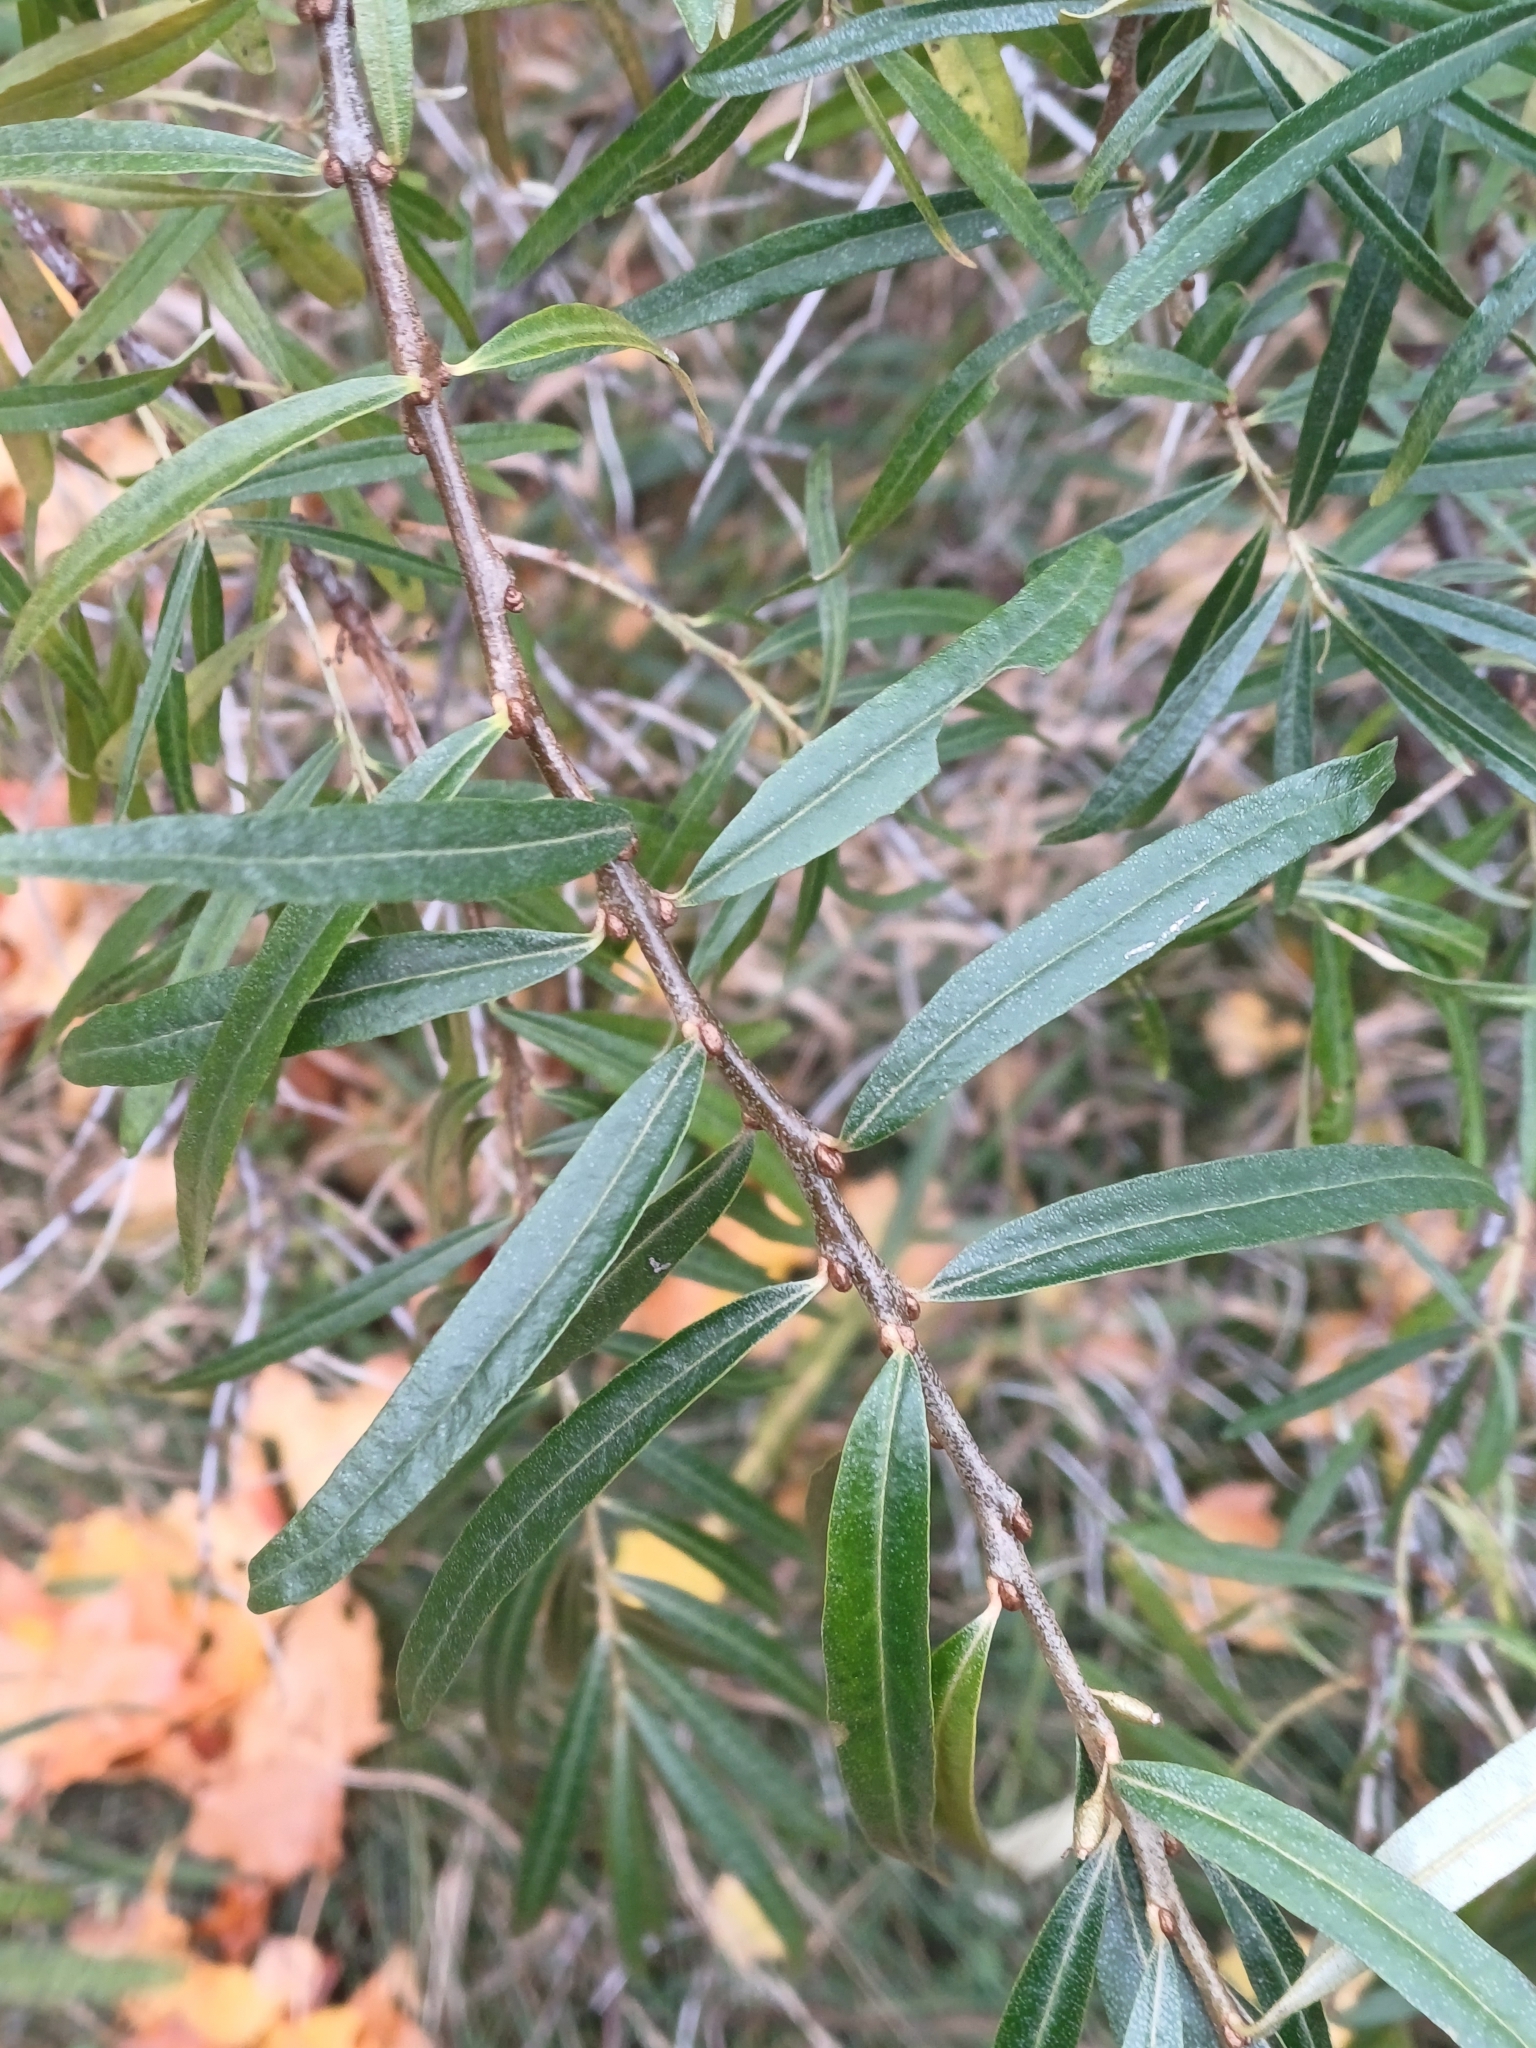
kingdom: Plantae
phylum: Tracheophyta
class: Magnoliopsida
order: Rosales
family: Elaeagnaceae
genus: Hippophae
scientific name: Hippophae rhamnoides
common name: Sea-buckthorn
